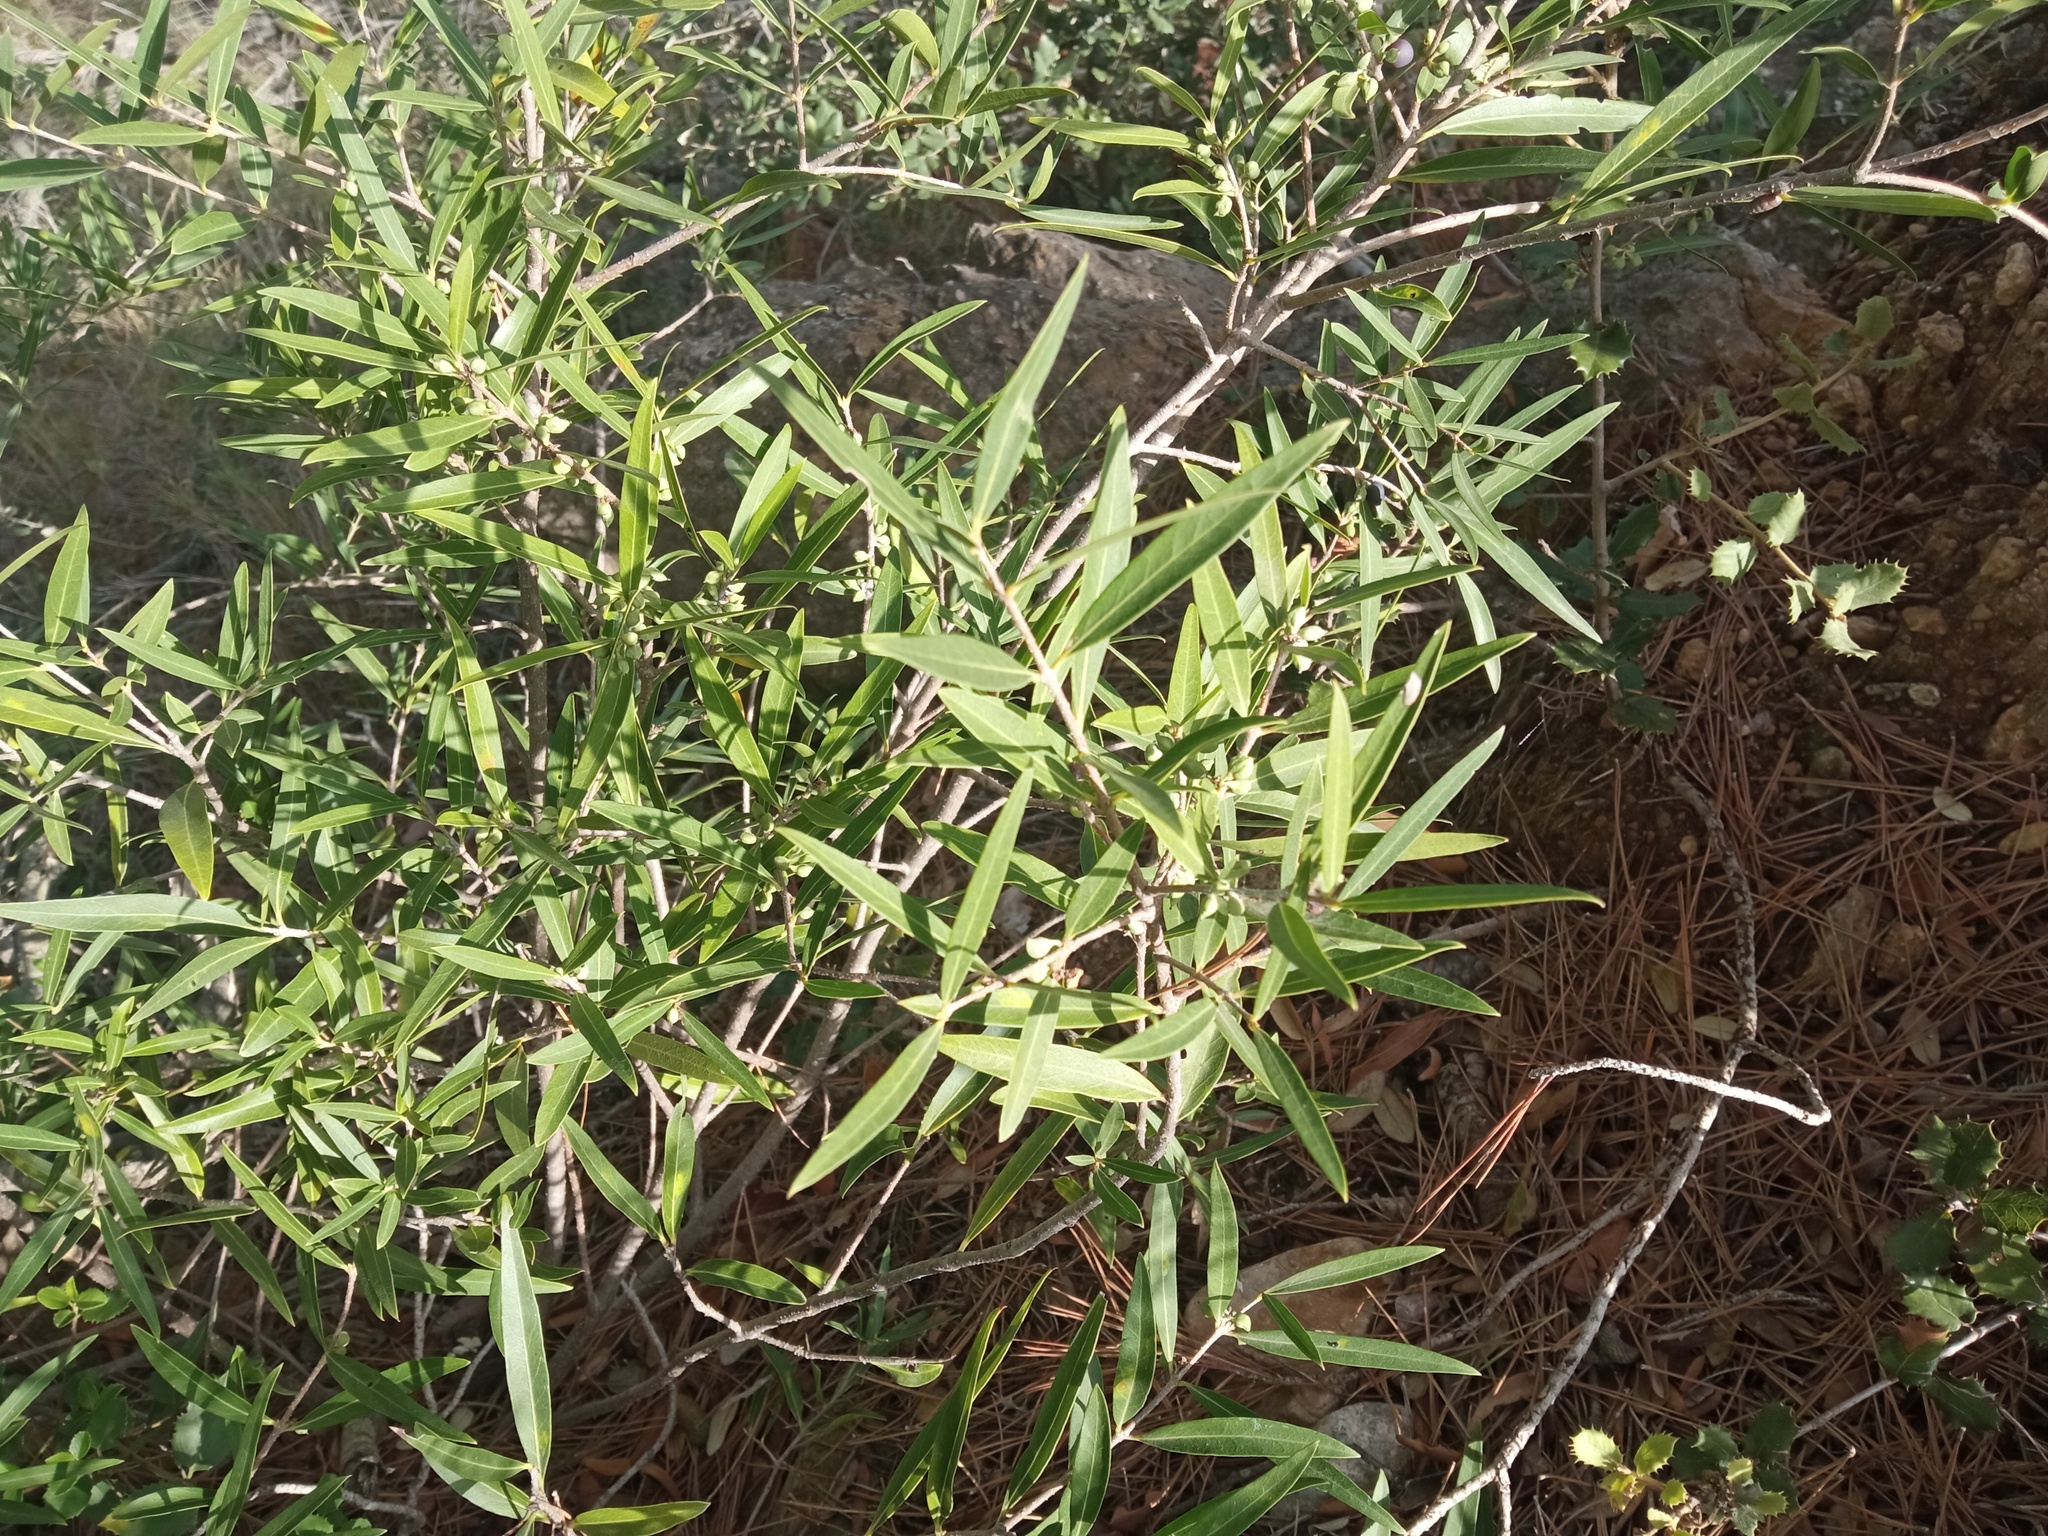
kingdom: Plantae
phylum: Tracheophyta
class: Magnoliopsida
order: Lamiales
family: Oleaceae
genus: Phillyrea
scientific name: Phillyrea angustifolia
